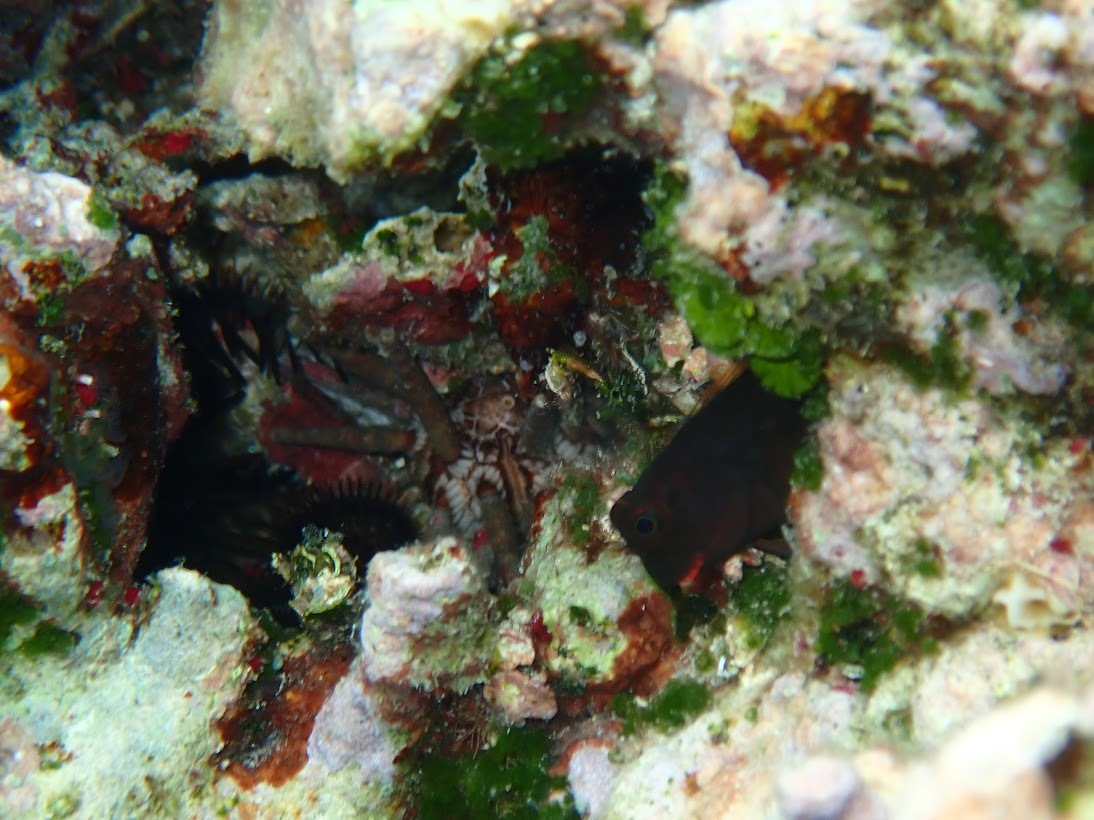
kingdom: Animalia
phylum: Echinodermata
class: Echinoidea
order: Cidaroida
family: Cidaridae
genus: Eucidaris
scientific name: Eucidaris tribuloides
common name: Slate pencil urchin
